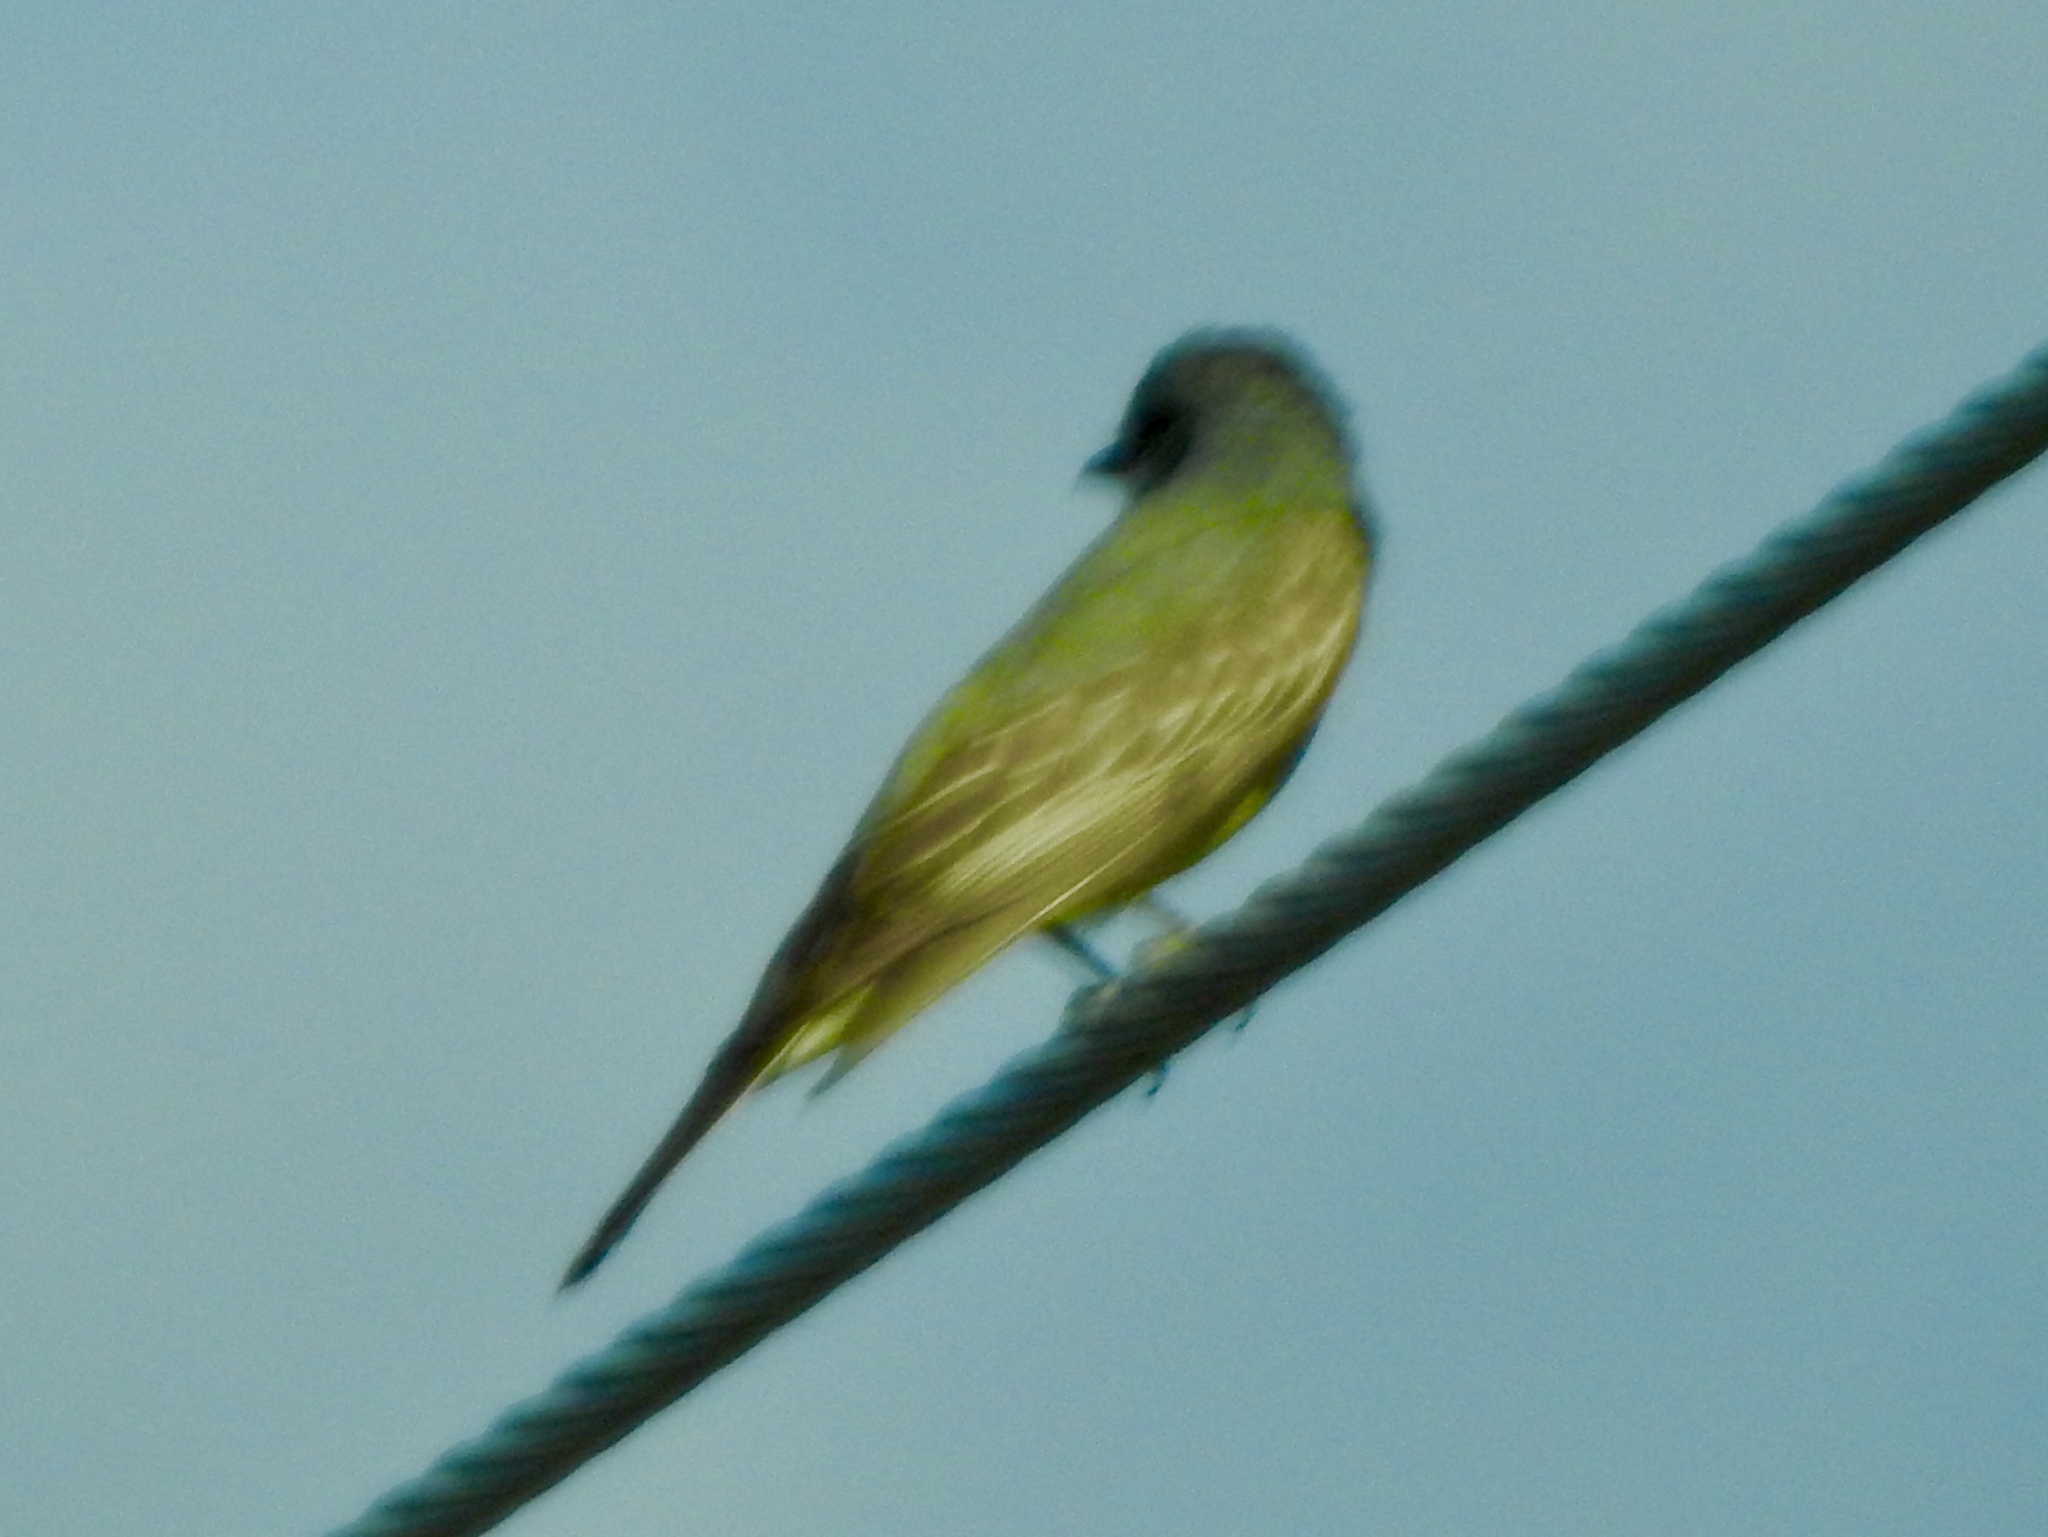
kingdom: Animalia
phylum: Chordata
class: Aves
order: Passeriformes
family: Tyrannidae
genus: Tyrannus
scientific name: Tyrannus vociferans
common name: Cassin's kingbird
